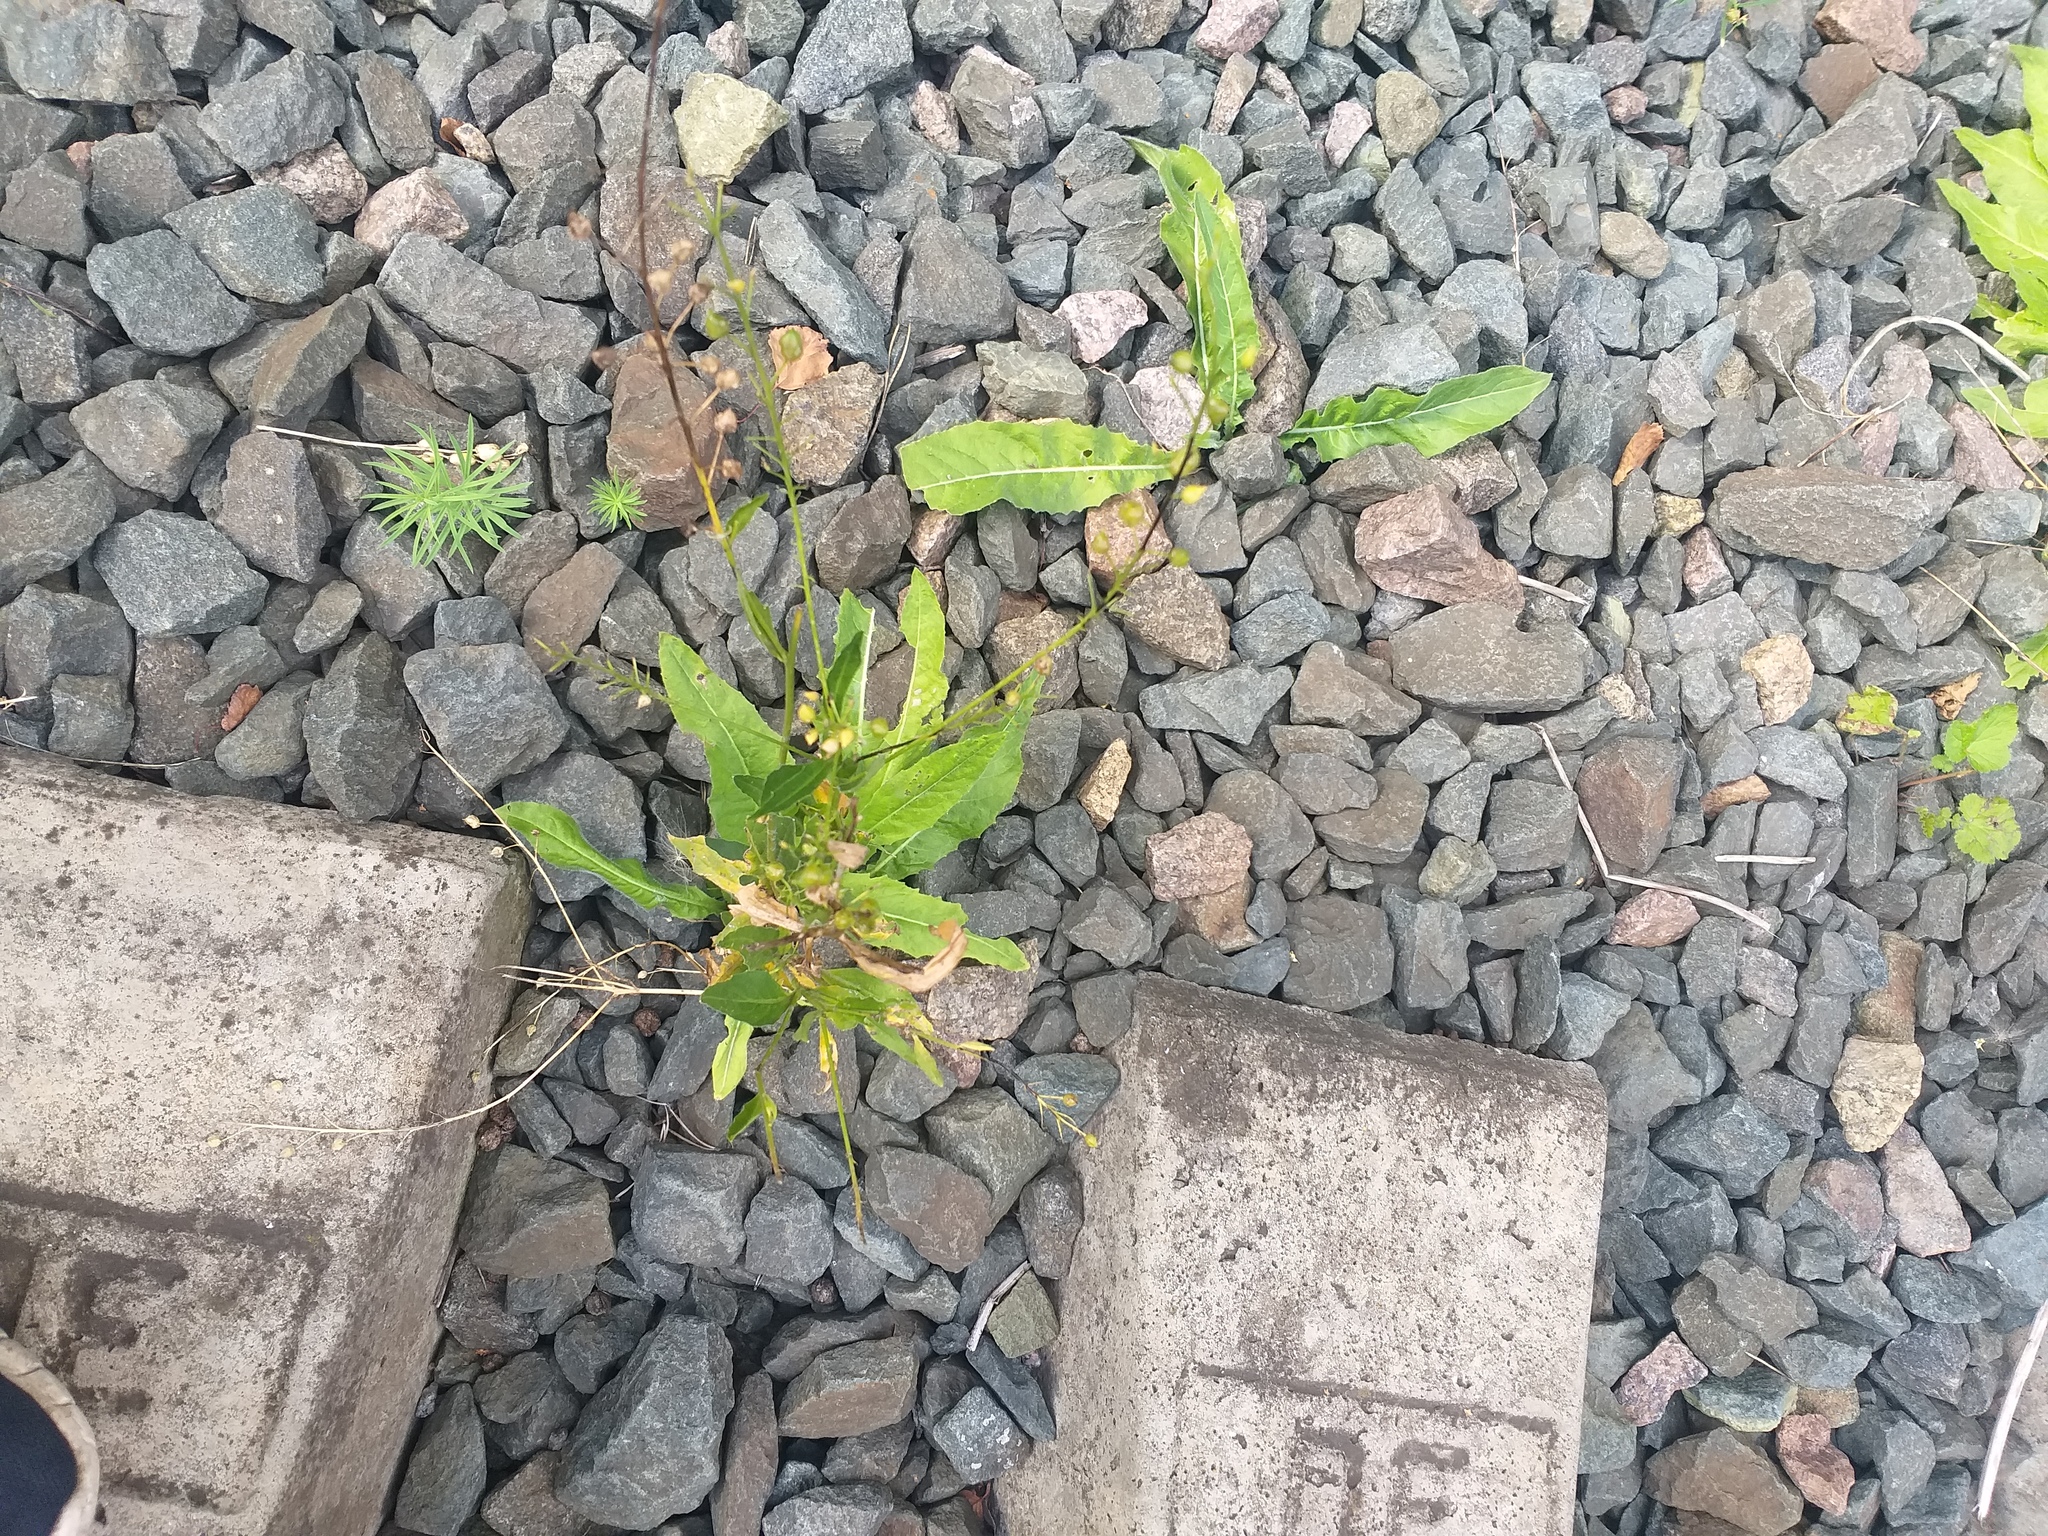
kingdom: Plantae
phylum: Tracheophyta
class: Magnoliopsida
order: Brassicales
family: Brassicaceae
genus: Bunias
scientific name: Bunias orientalis
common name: Warty-cabbage
